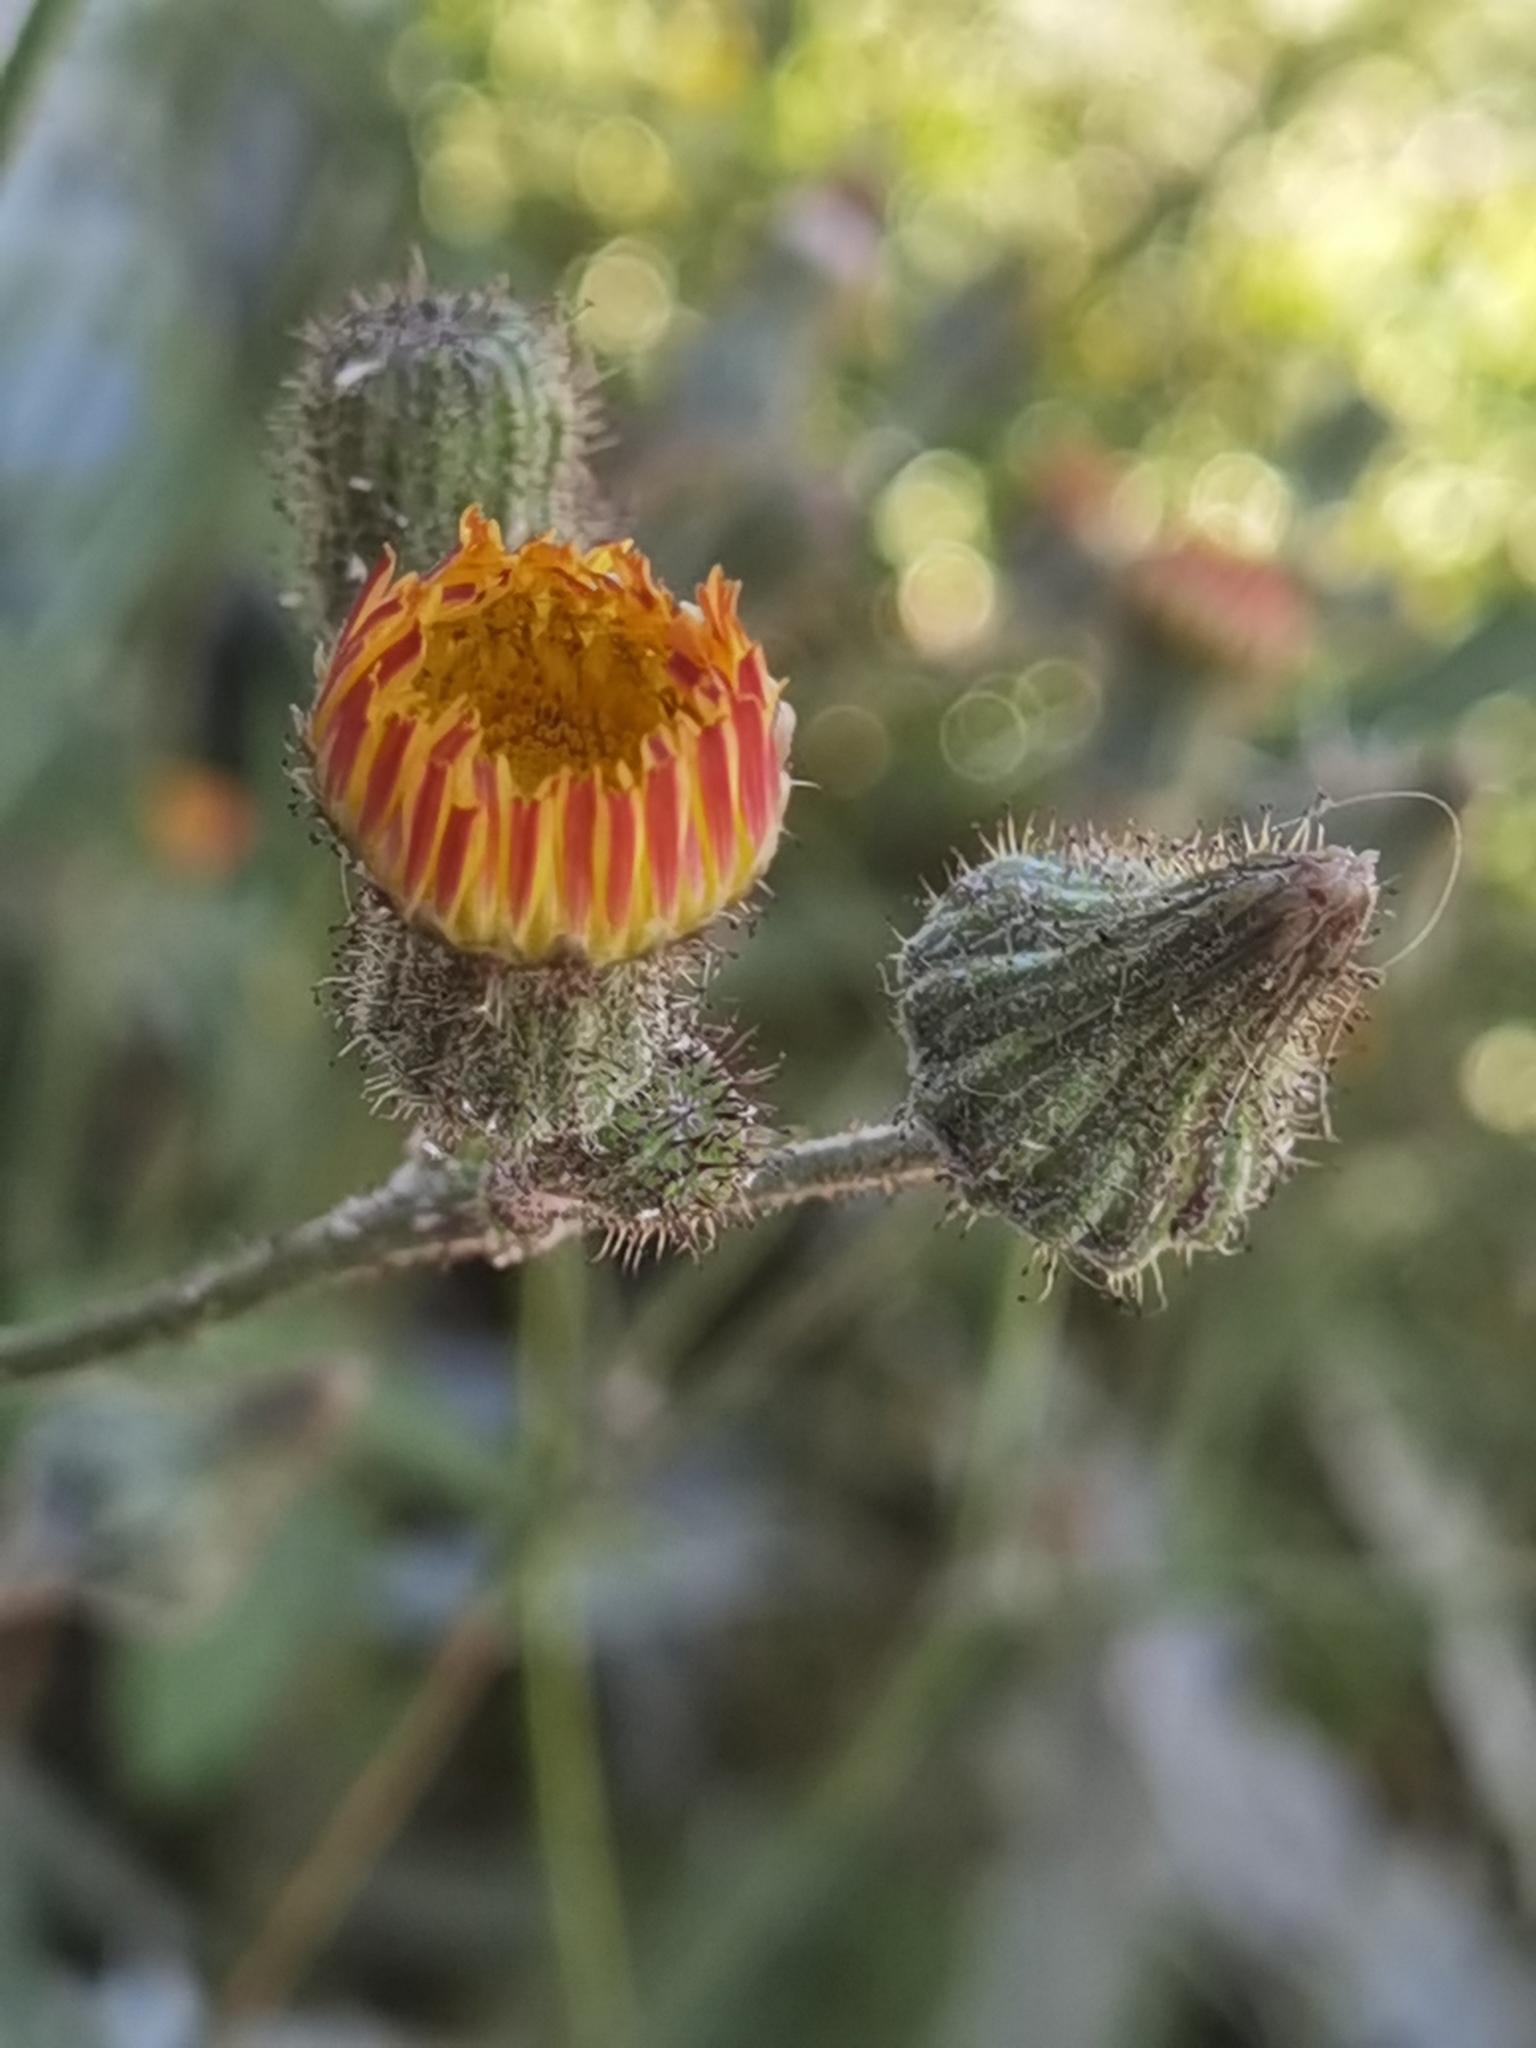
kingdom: Plantae
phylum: Tracheophyta
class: Magnoliopsida
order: Asterales
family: Asteraceae
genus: Sonchus
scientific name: Sonchus wightianus
